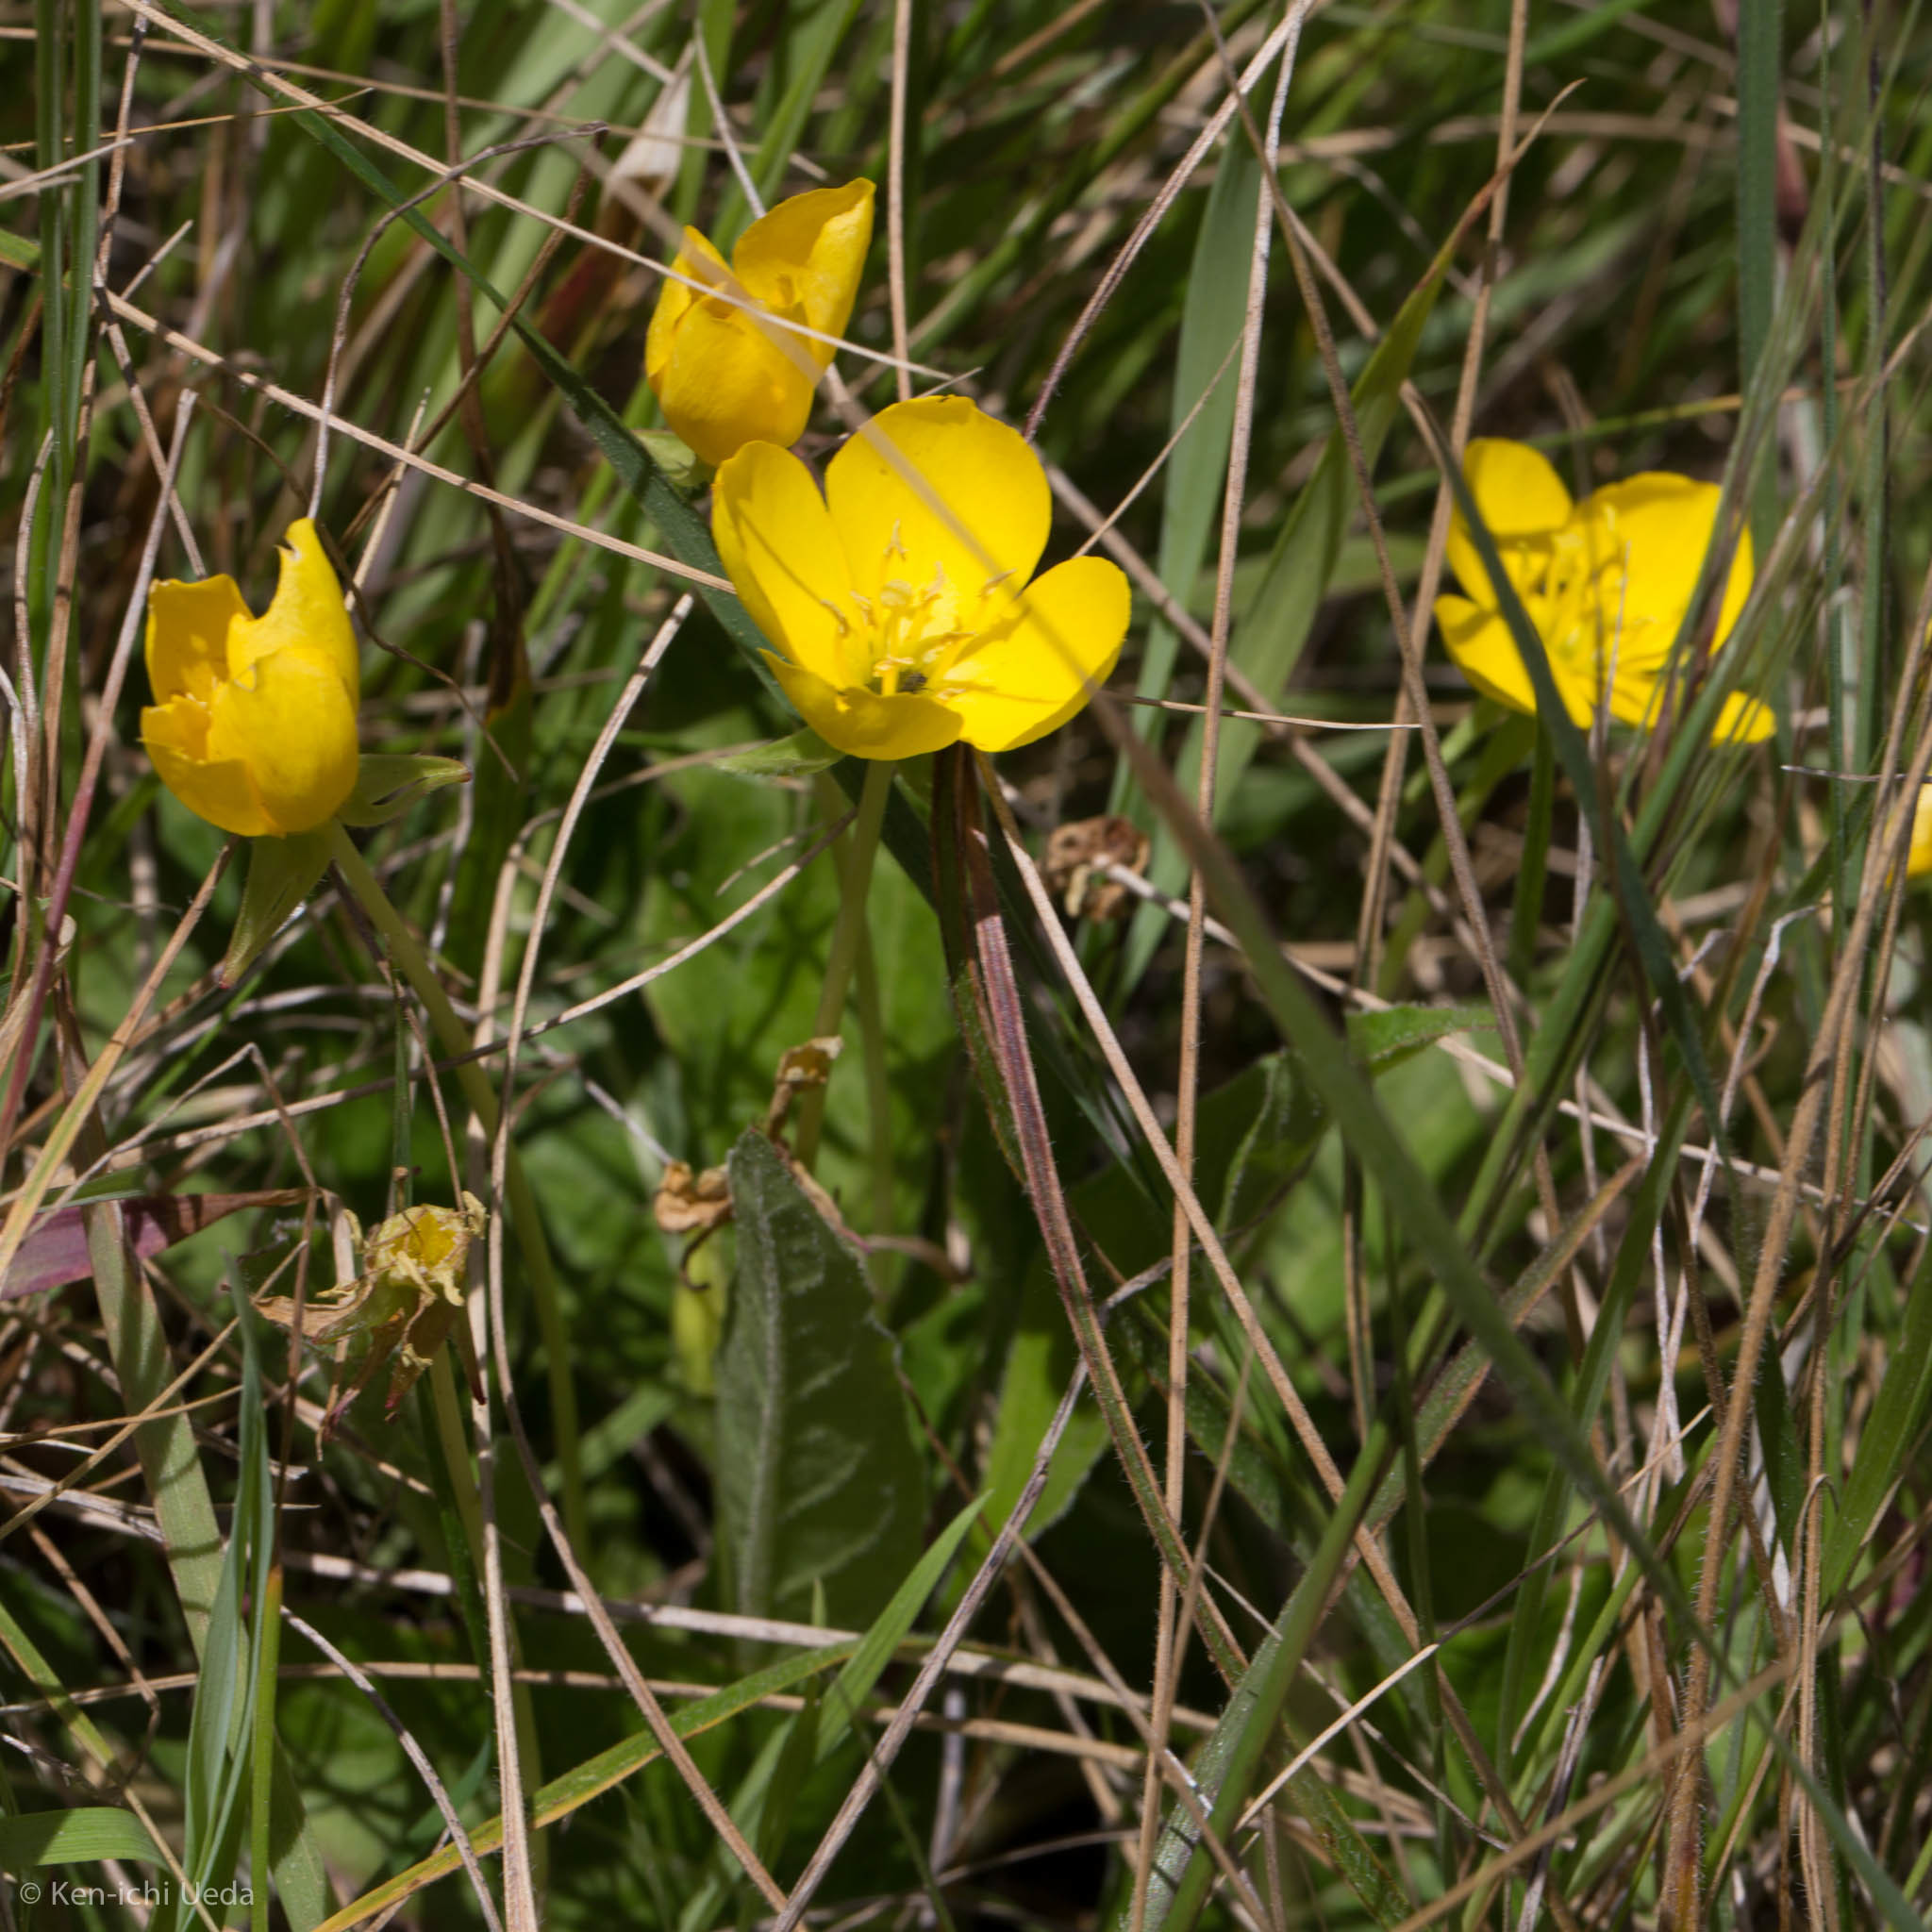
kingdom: Plantae
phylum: Tracheophyta
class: Magnoliopsida
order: Myrtales
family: Onagraceae
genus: Taraxia
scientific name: Taraxia ovata
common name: Goldeneggs
